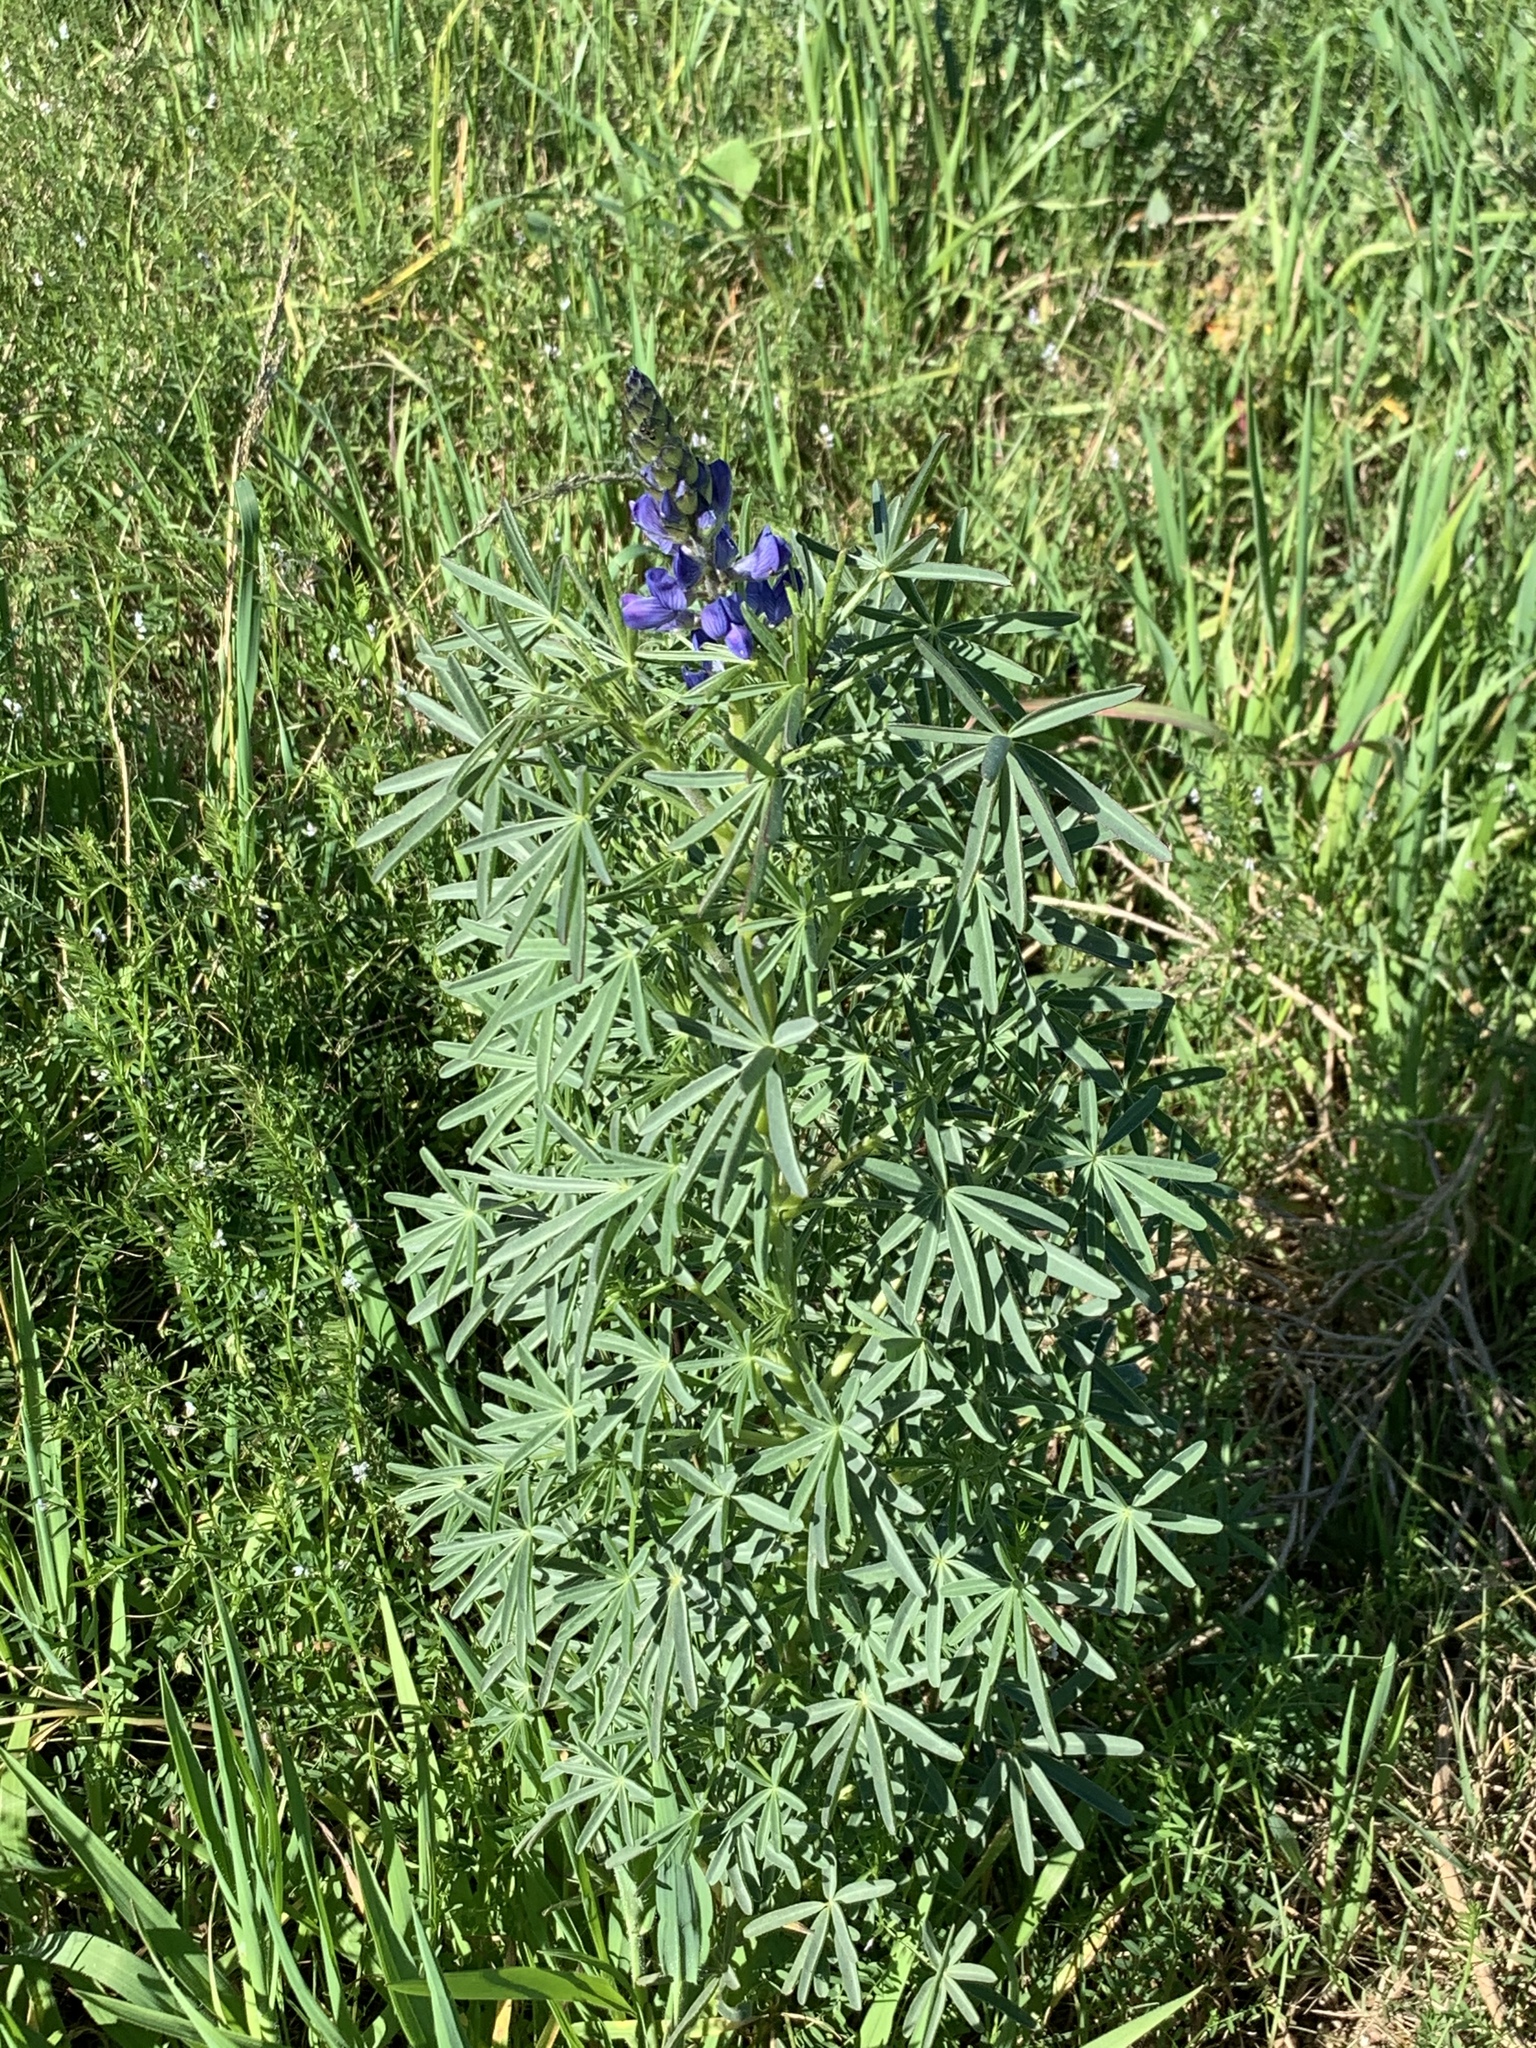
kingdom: Plantae
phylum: Tracheophyta
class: Magnoliopsida
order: Fabales
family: Fabaceae
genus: Lupinus
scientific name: Lupinus angustifolius
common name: Narrow-leaved lupin
